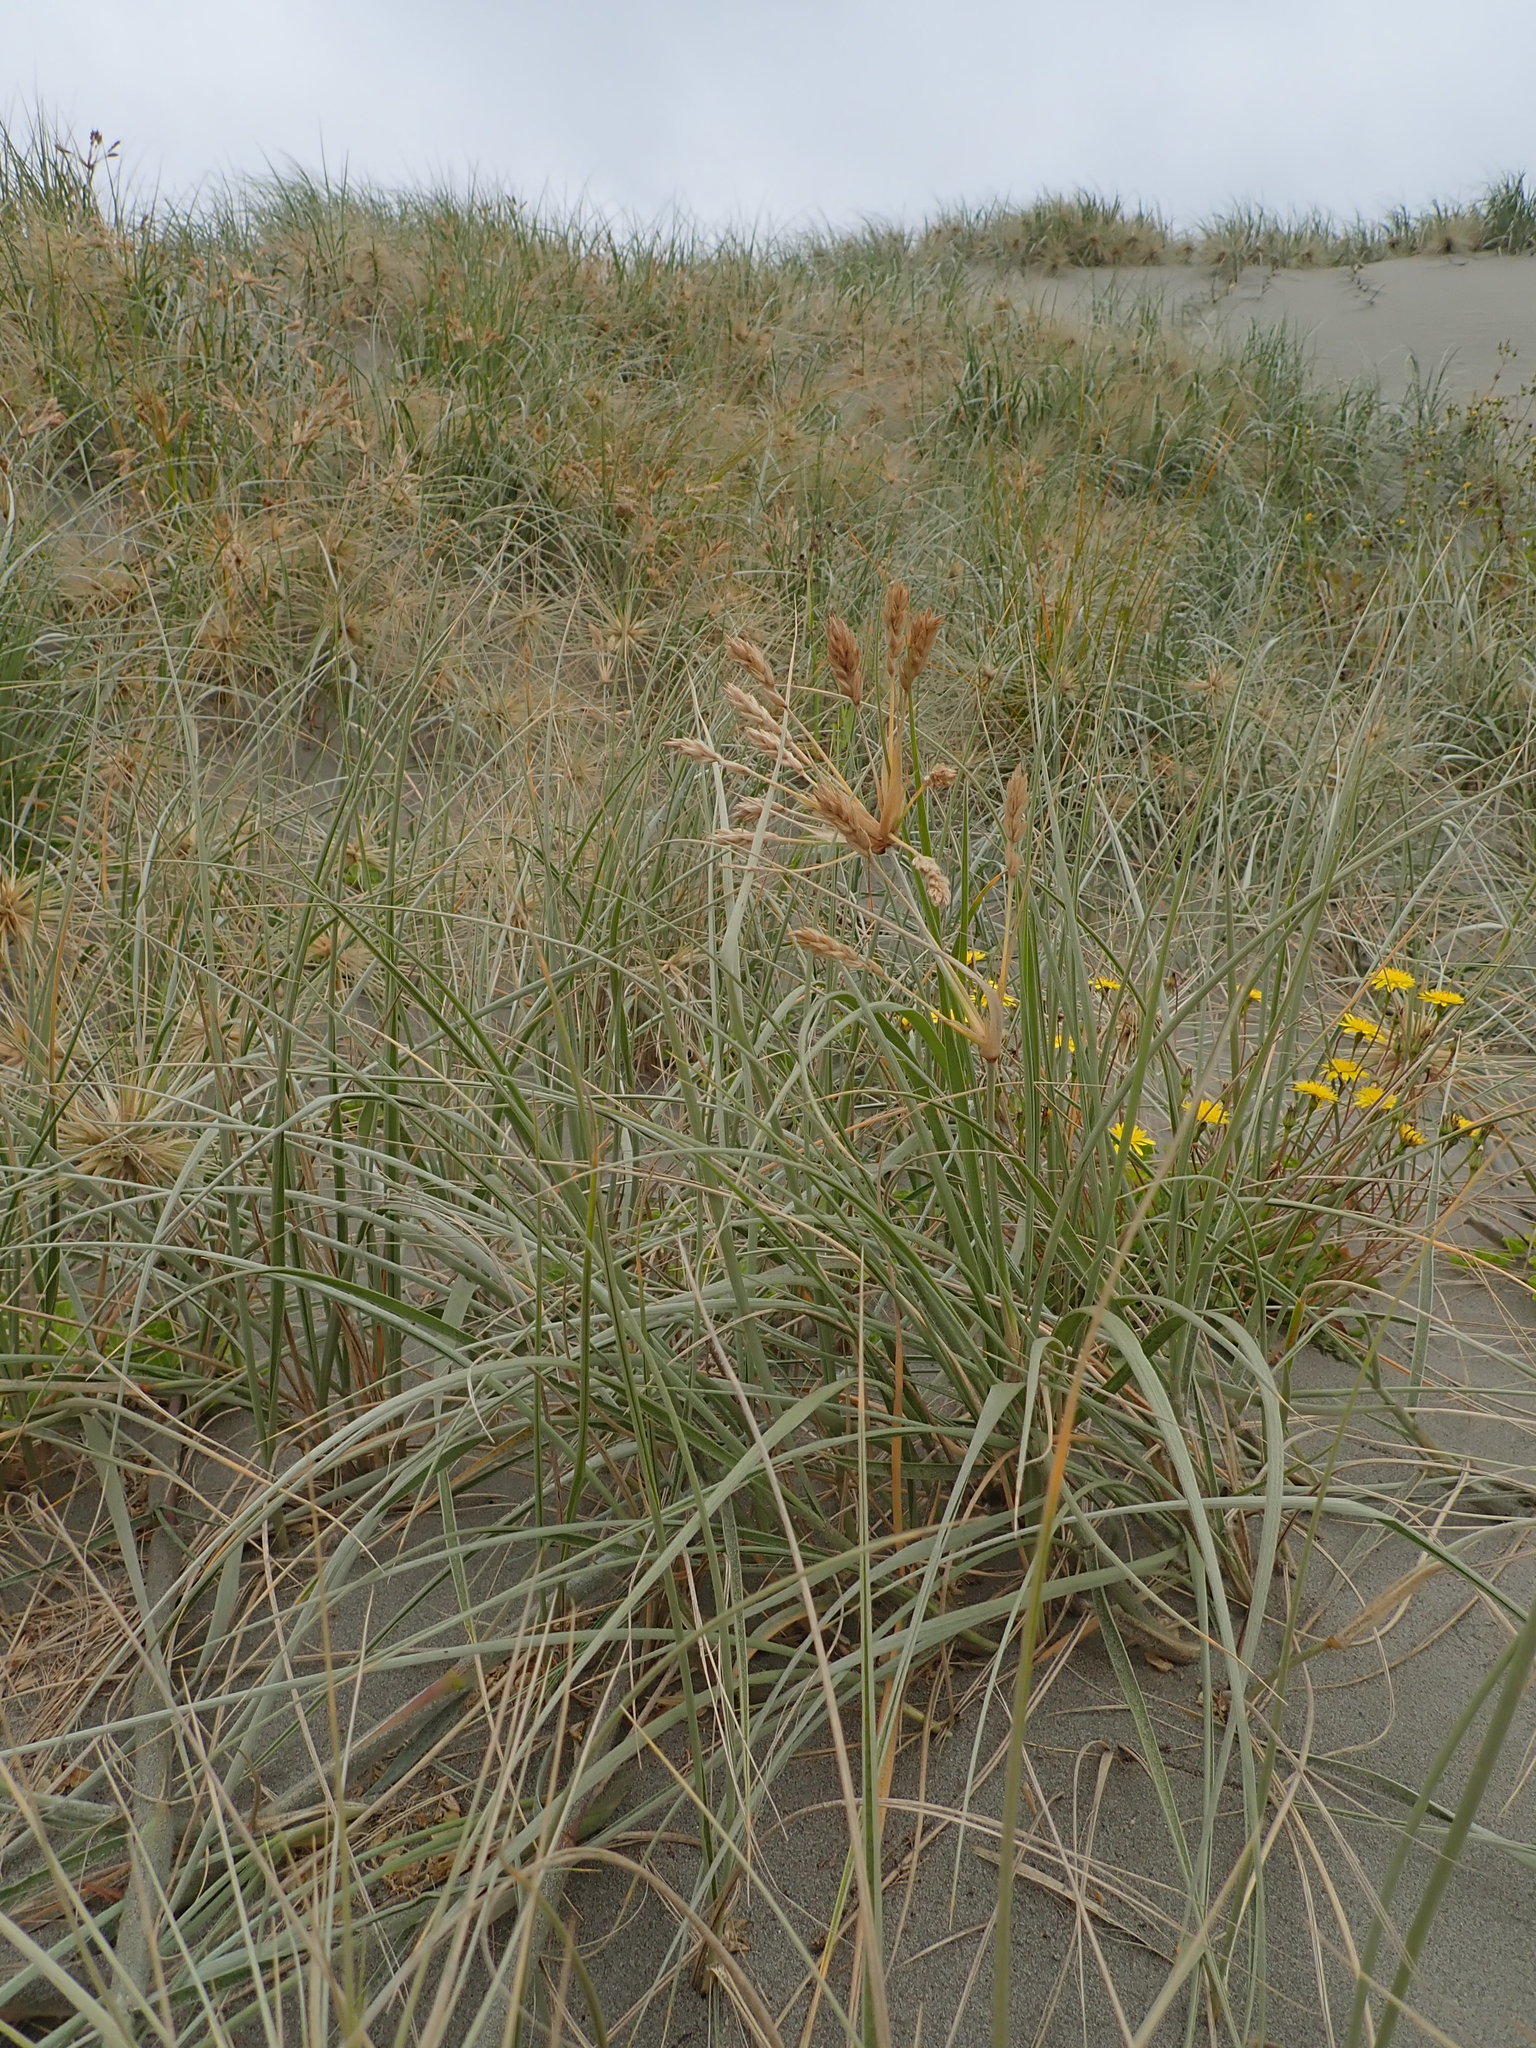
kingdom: Plantae
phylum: Tracheophyta
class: Liliopsida
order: Poales
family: Poaceae
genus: Spinifex
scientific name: Spinifex sericeus
